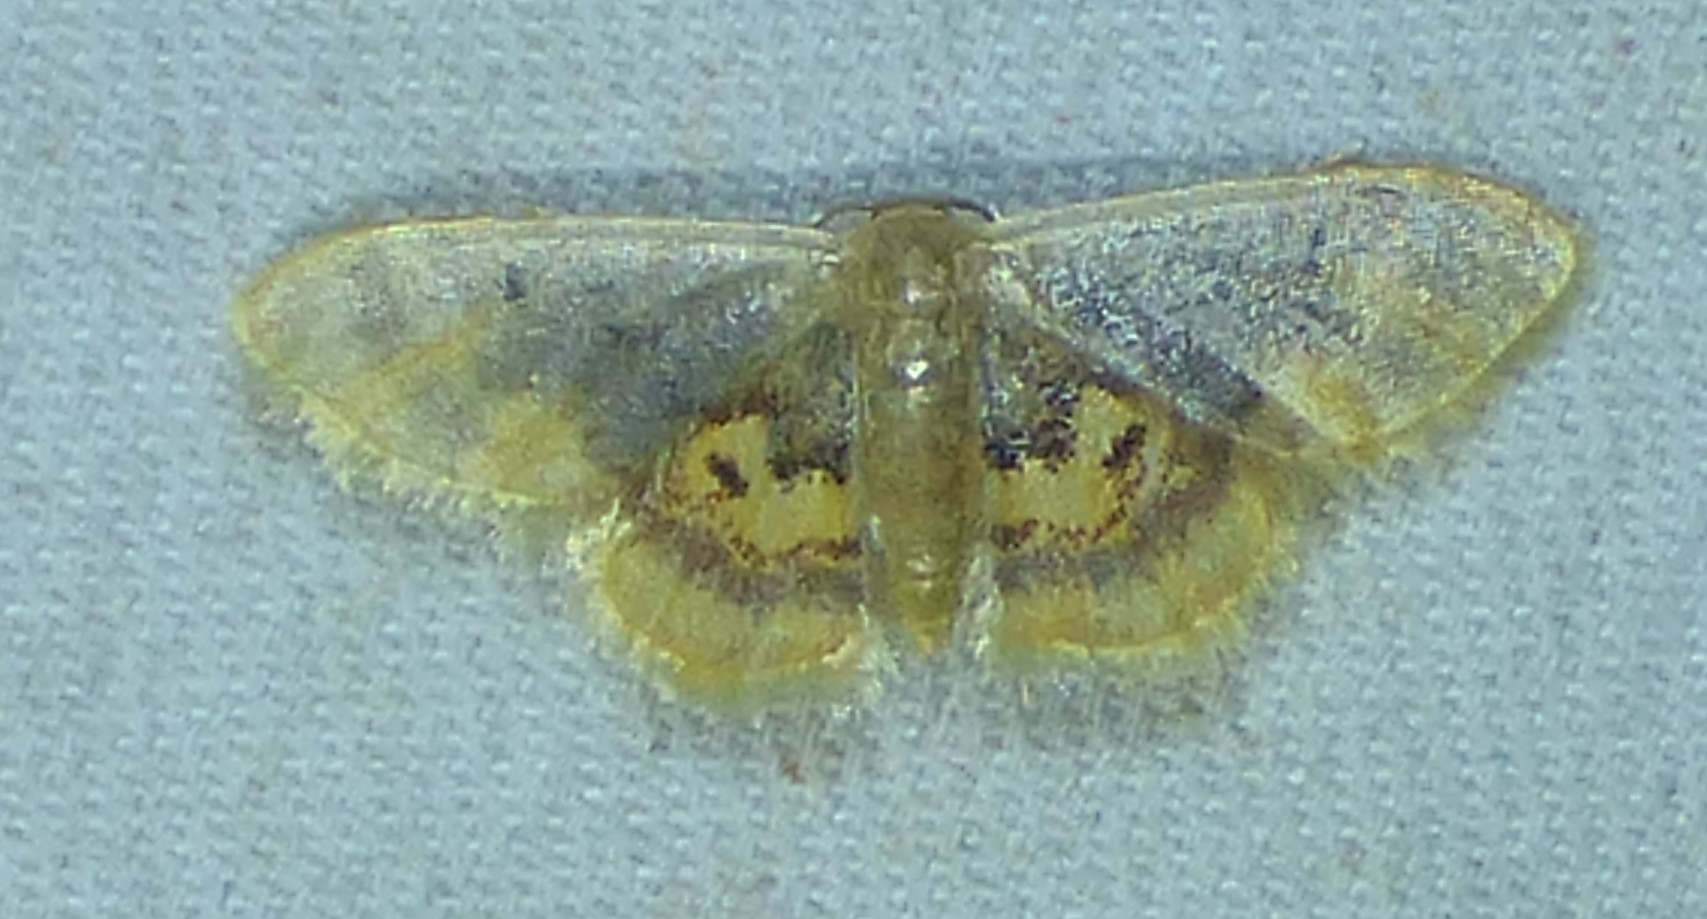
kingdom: Animalia
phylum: Arthropoda
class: Insecta
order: Lepidoptera
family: Geometridae
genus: Idaea
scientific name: Idaea scintillularia
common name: Diminutive wave
